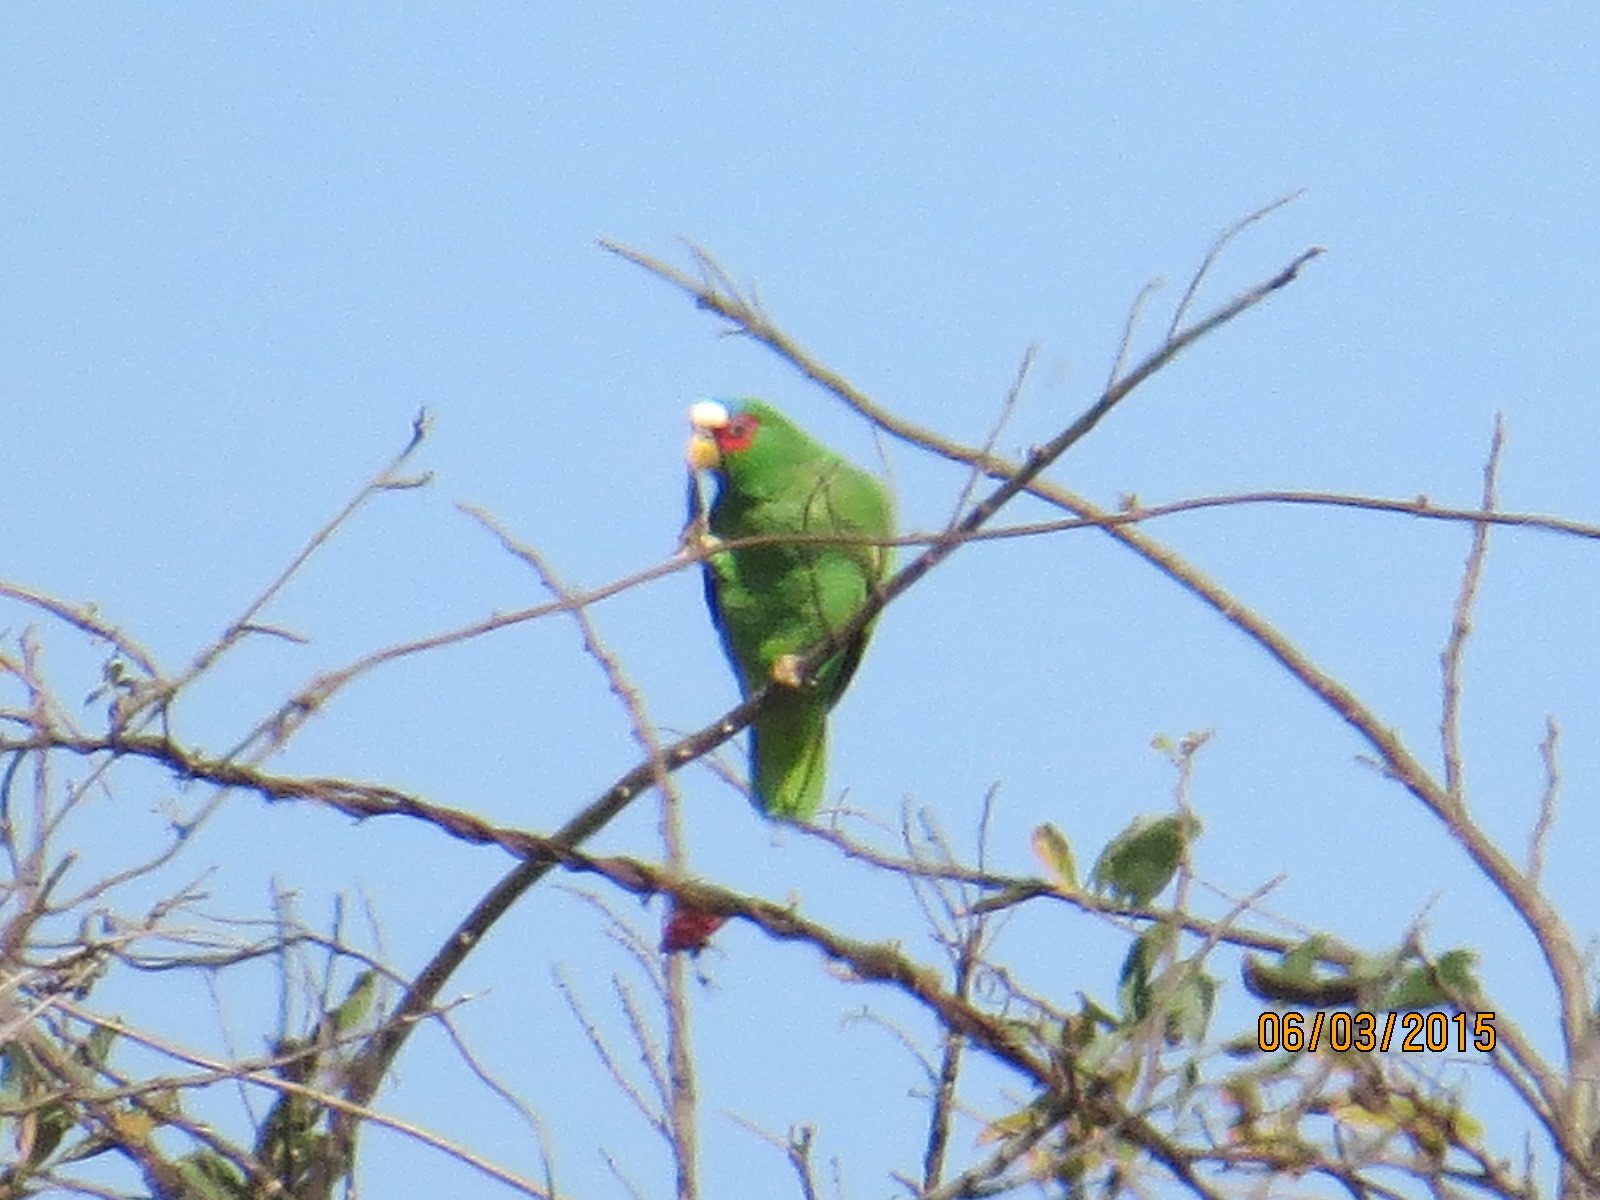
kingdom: Animalia
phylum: Chordata
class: Aves
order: Psittaciformes
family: Psittacidae
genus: Amazona
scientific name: Amazona albifrons
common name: White-fronted amazon
